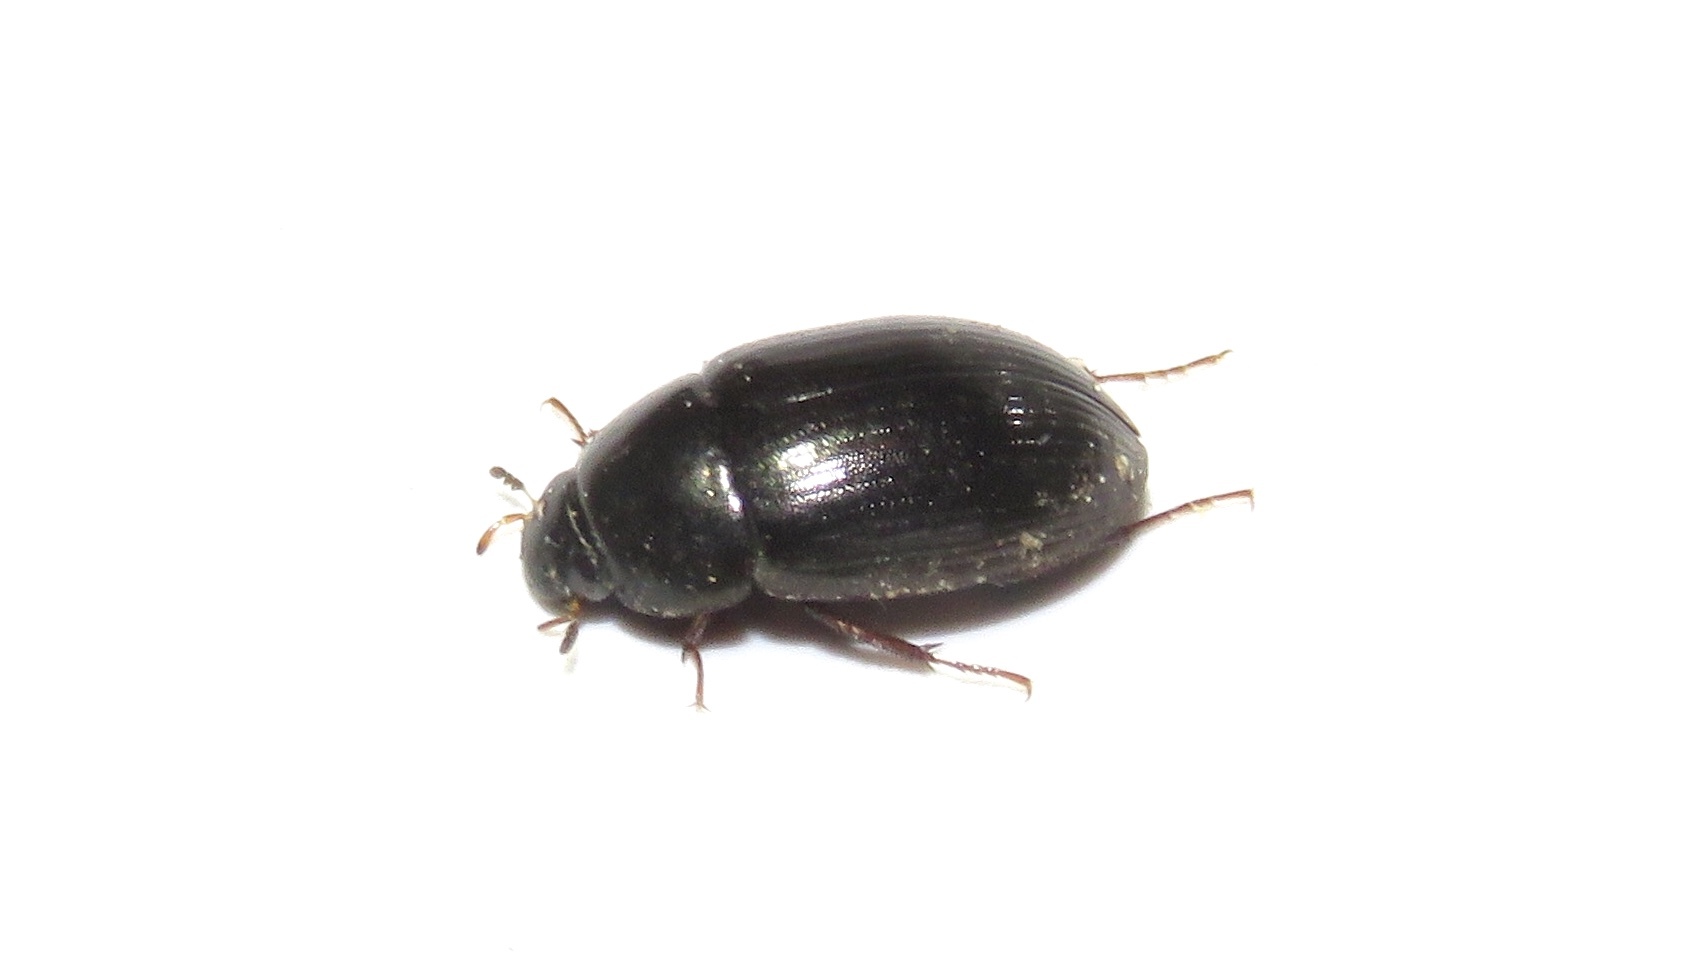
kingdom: Animalia
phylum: Arthropoda
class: Insecta
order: Coleoptera
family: Hydrophilidae
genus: Hydrobius
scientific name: Hydrobius fuscipes
